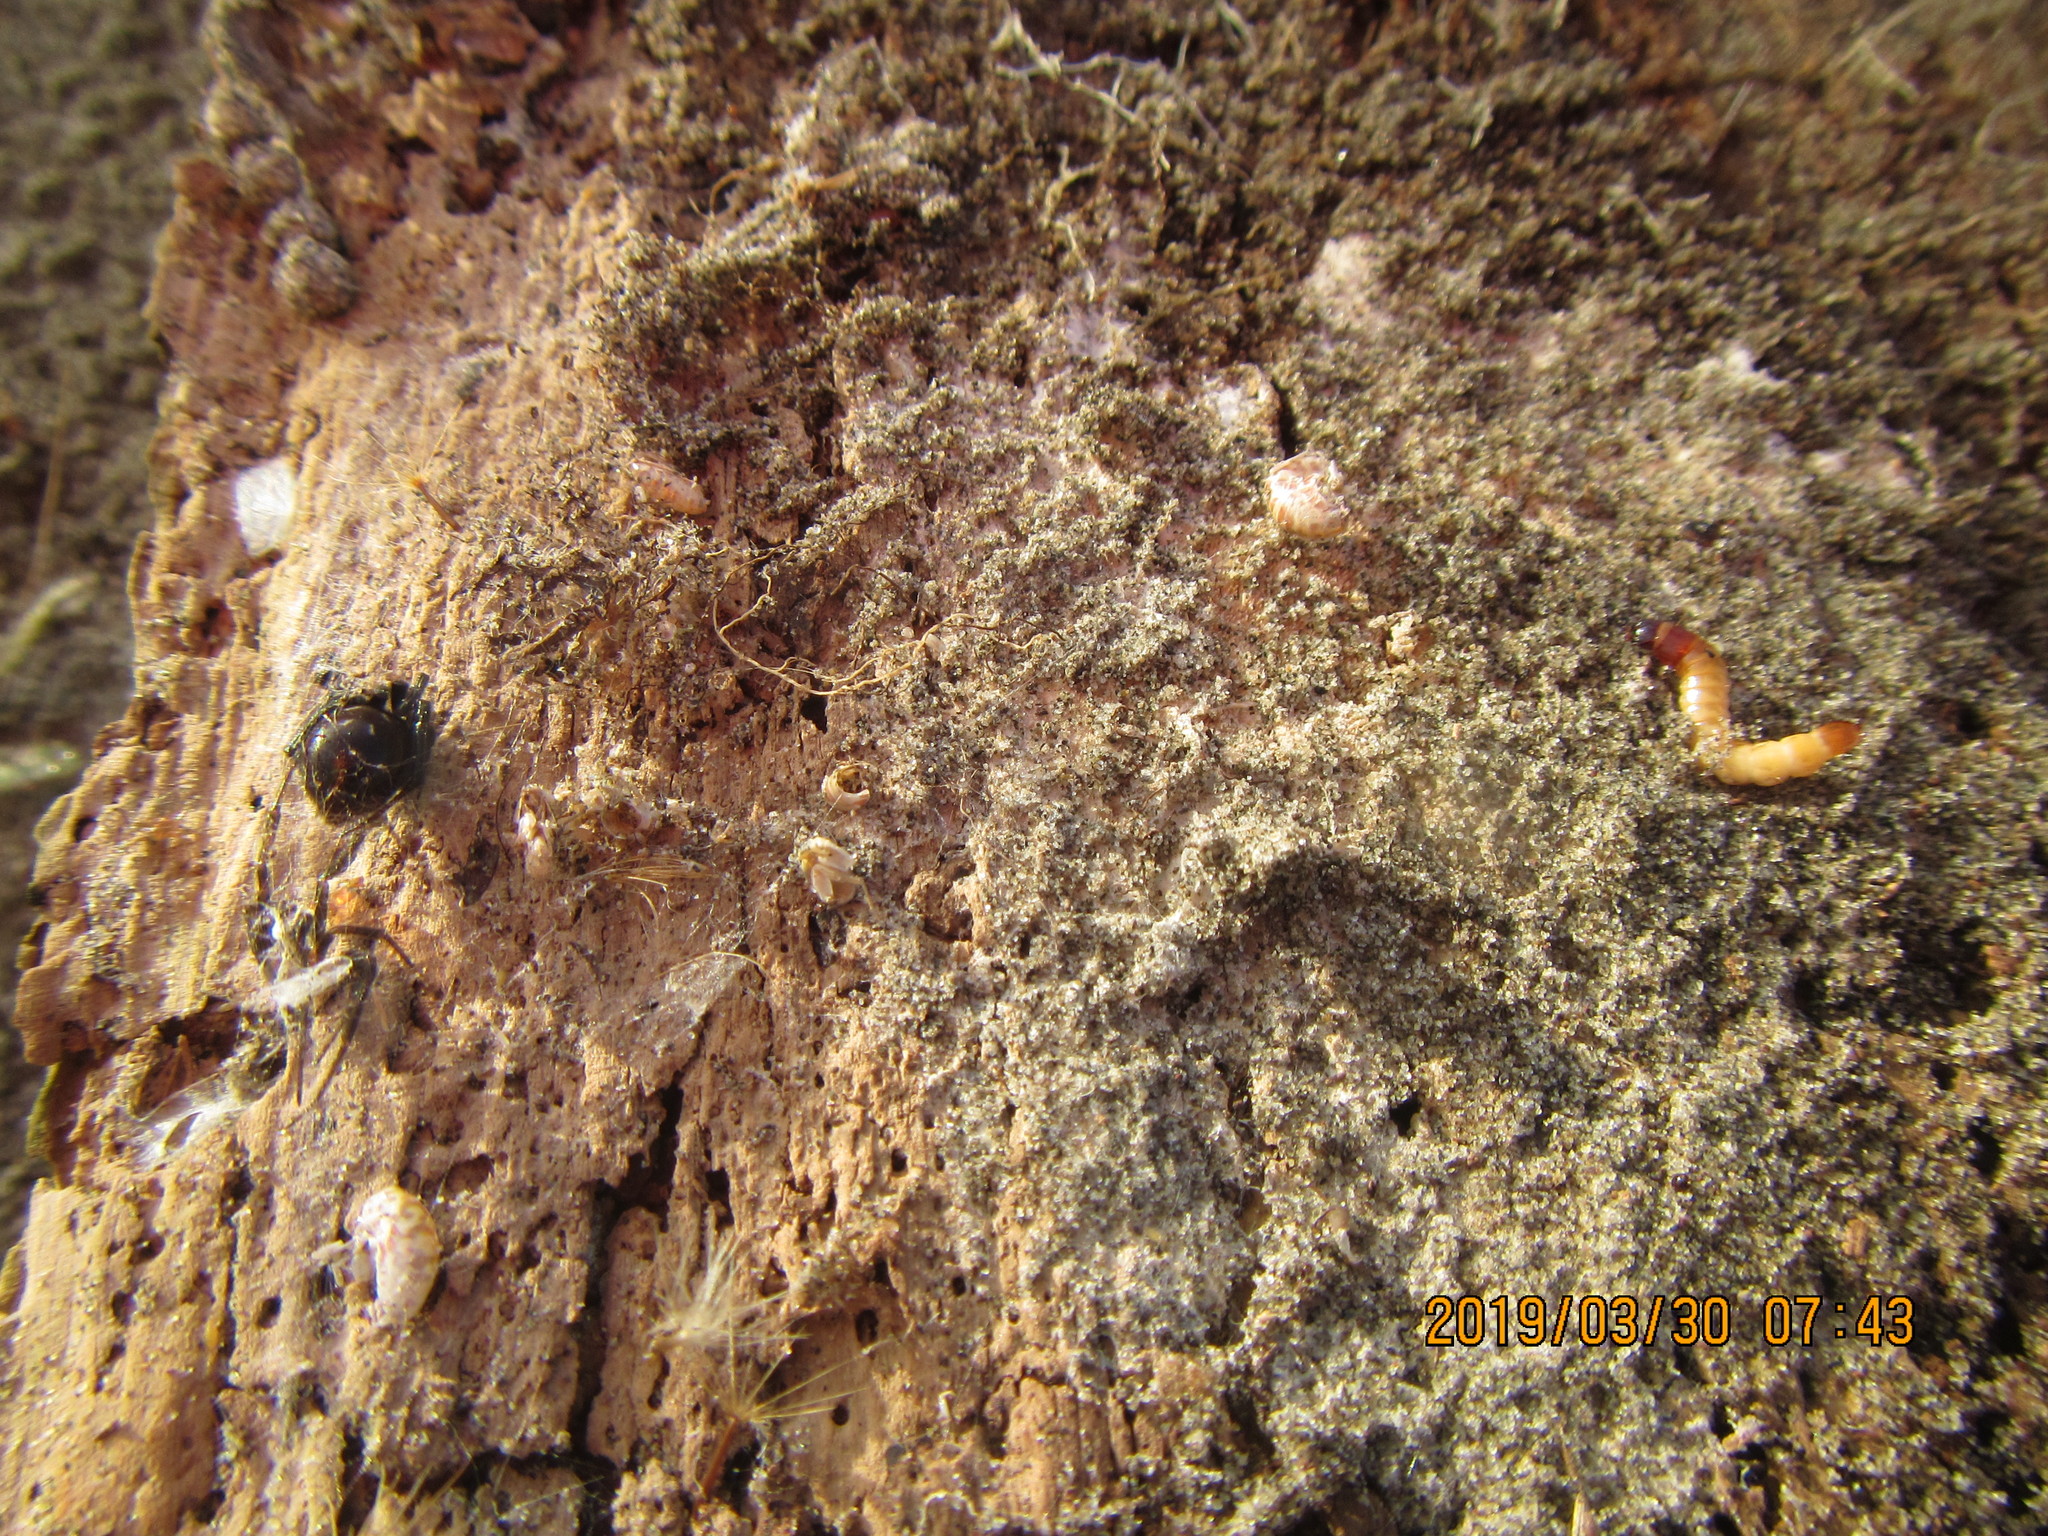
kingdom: Animalia
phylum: Arthropoda
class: Arachnida
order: Araneae
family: Theridiidae
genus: Steatoda
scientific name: Steatoda capensis
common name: Cobweb weaver
